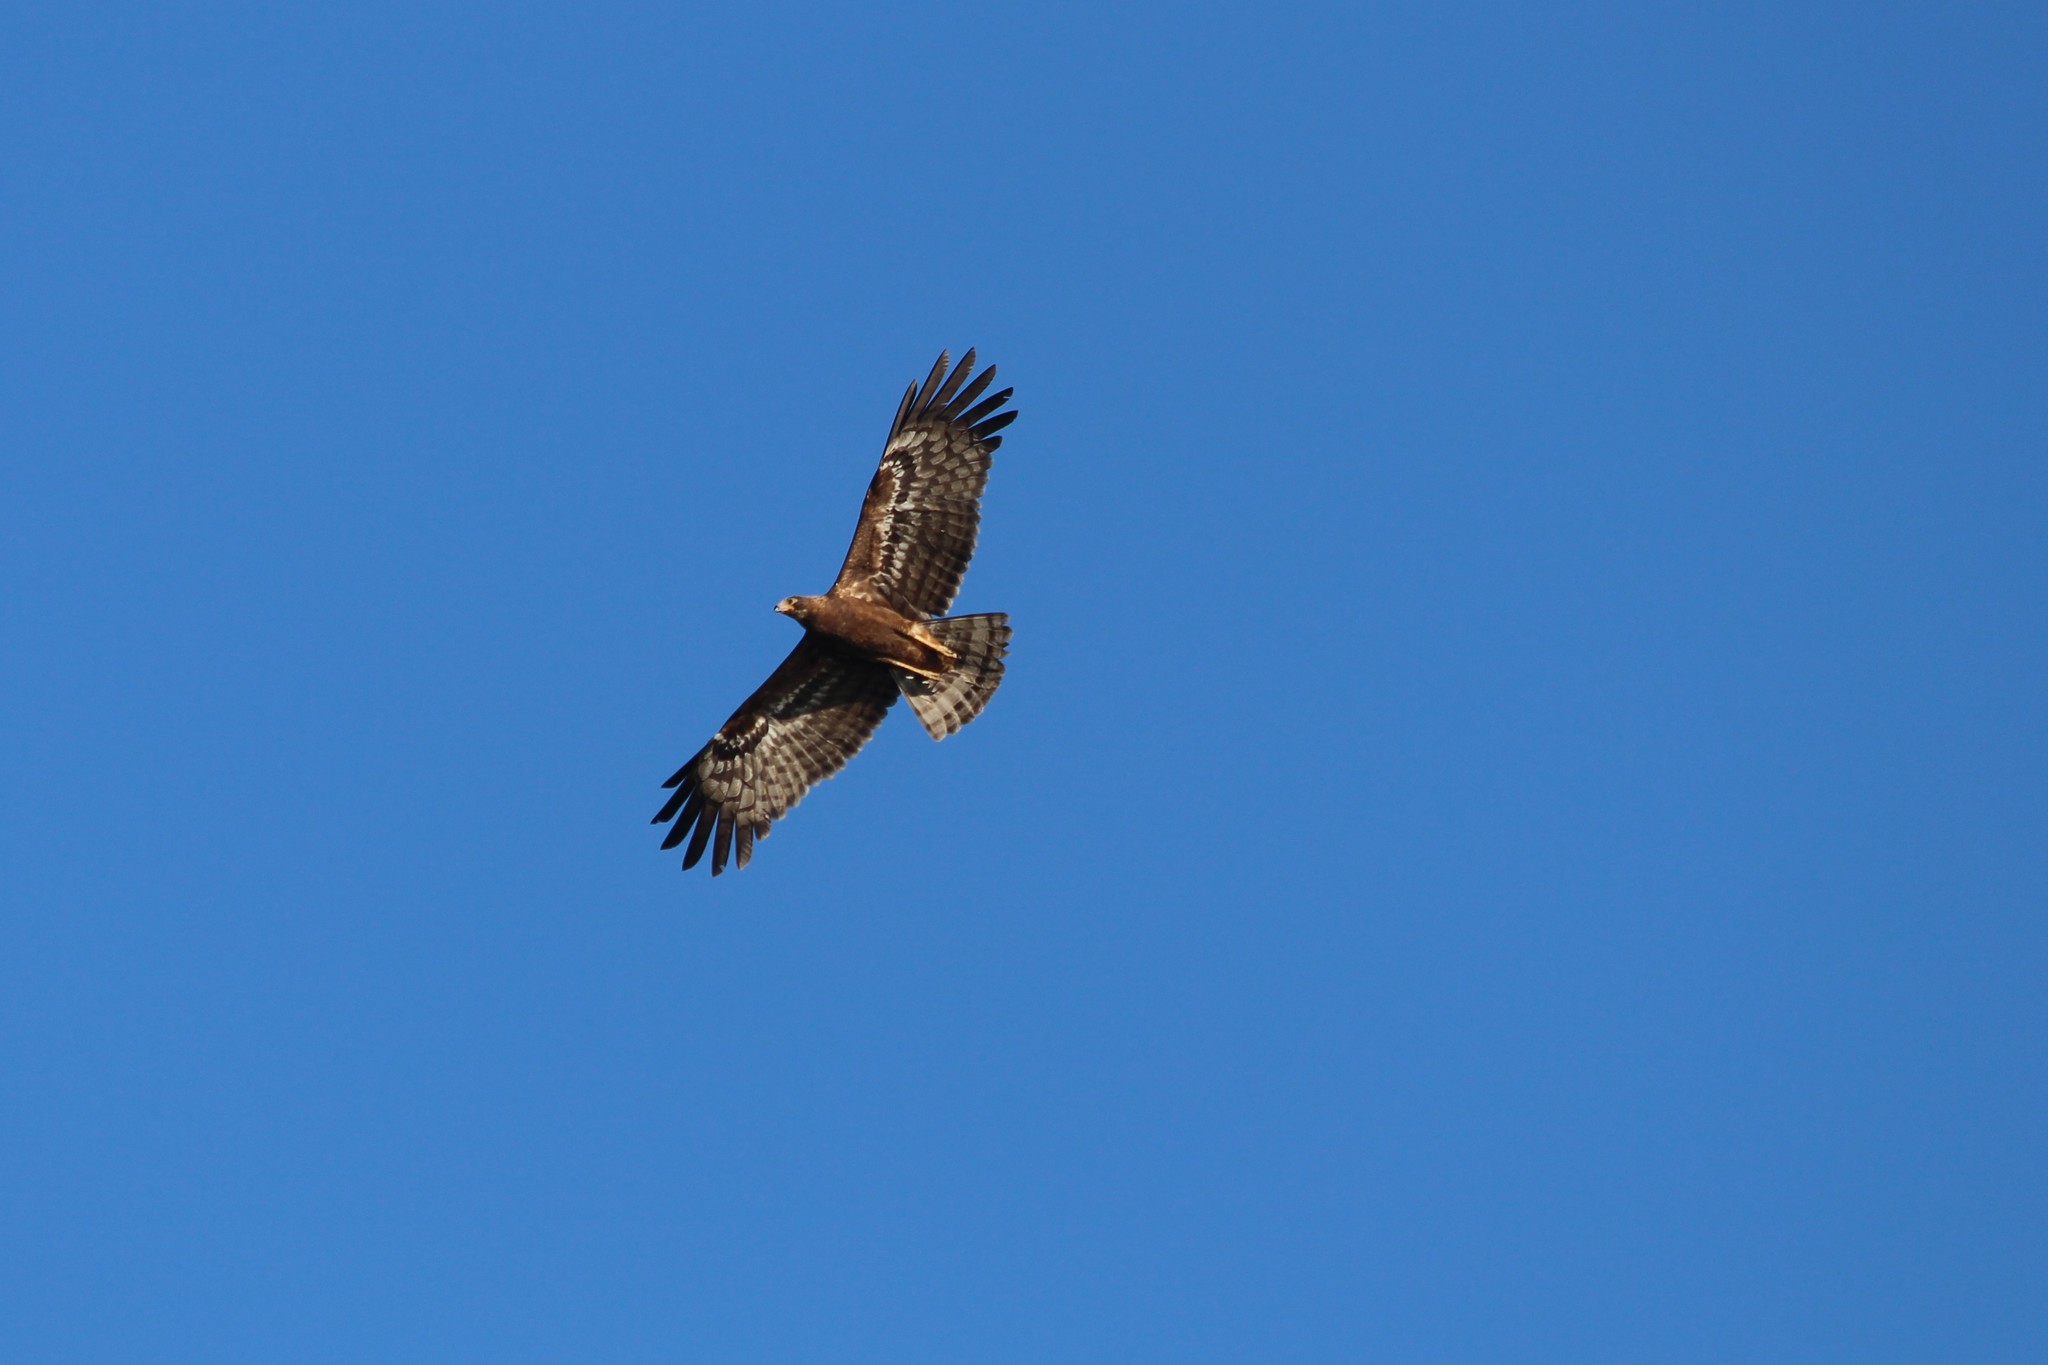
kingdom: Animalia
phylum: Chordata
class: Aves
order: Accipitriformes
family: Accipitridae
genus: Polyboroides
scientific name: Polyboroides typus
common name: African harrier-hawk
